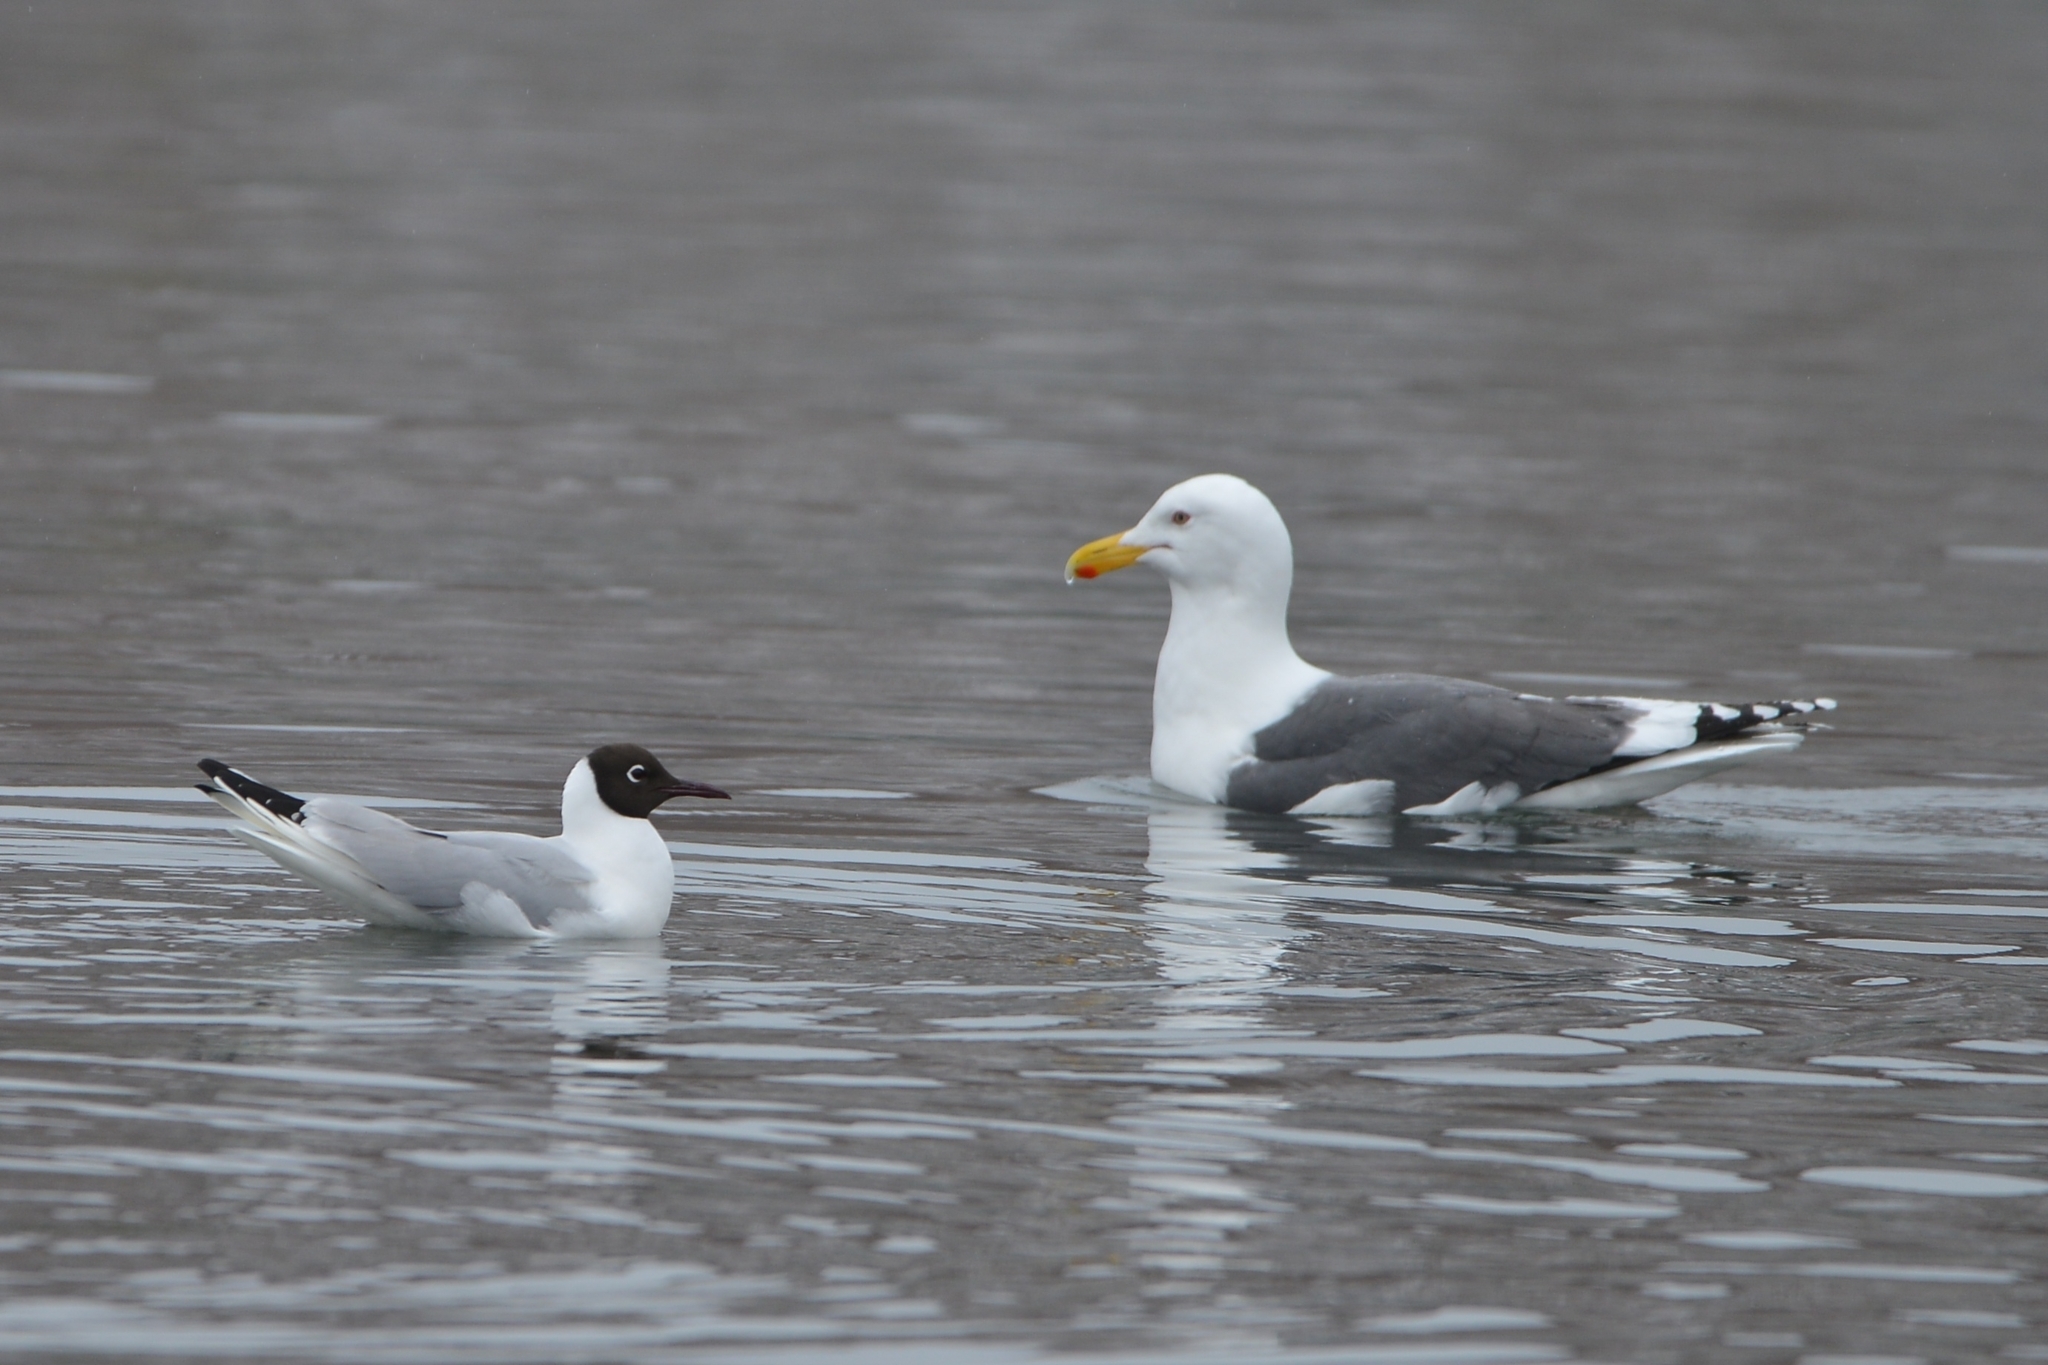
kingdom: Animalia
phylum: Chordata
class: Aves
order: Charadriiformes
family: Laridae
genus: Larus
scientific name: Larus schistisagus
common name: Slaty-backed gull
